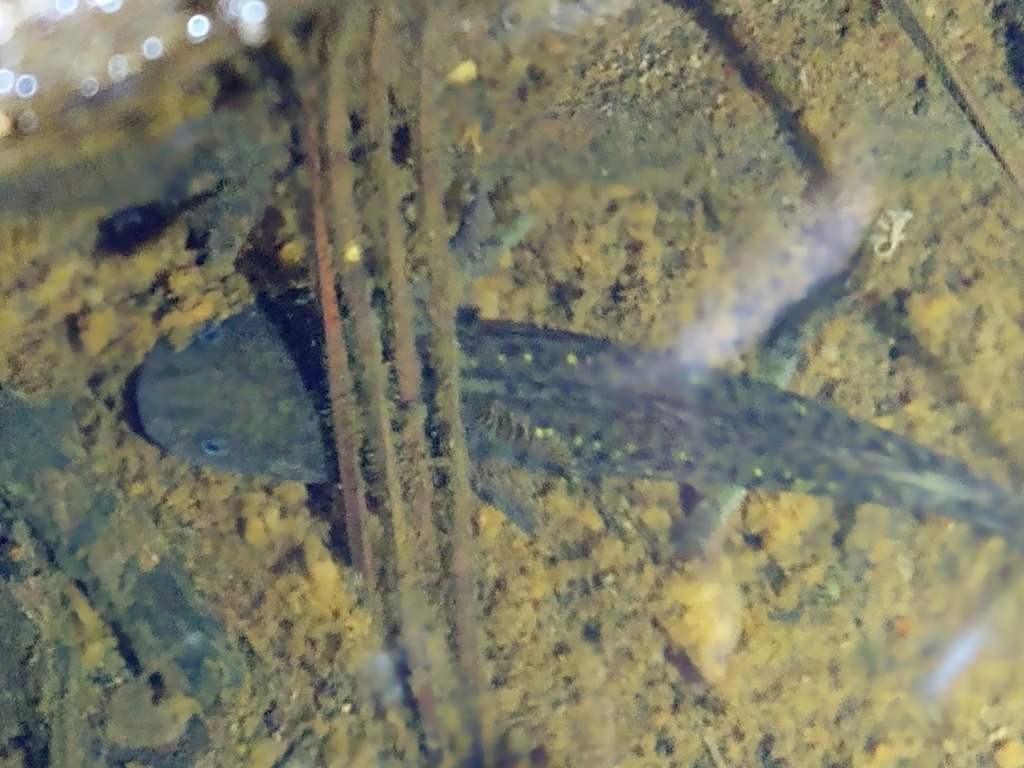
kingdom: Animalia
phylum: Chordata
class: Amphibia
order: Caudata
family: Ambystomatidae
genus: Ambystoma
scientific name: Ambystoma flavipiperatum
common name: Yellow-peppered salamander
